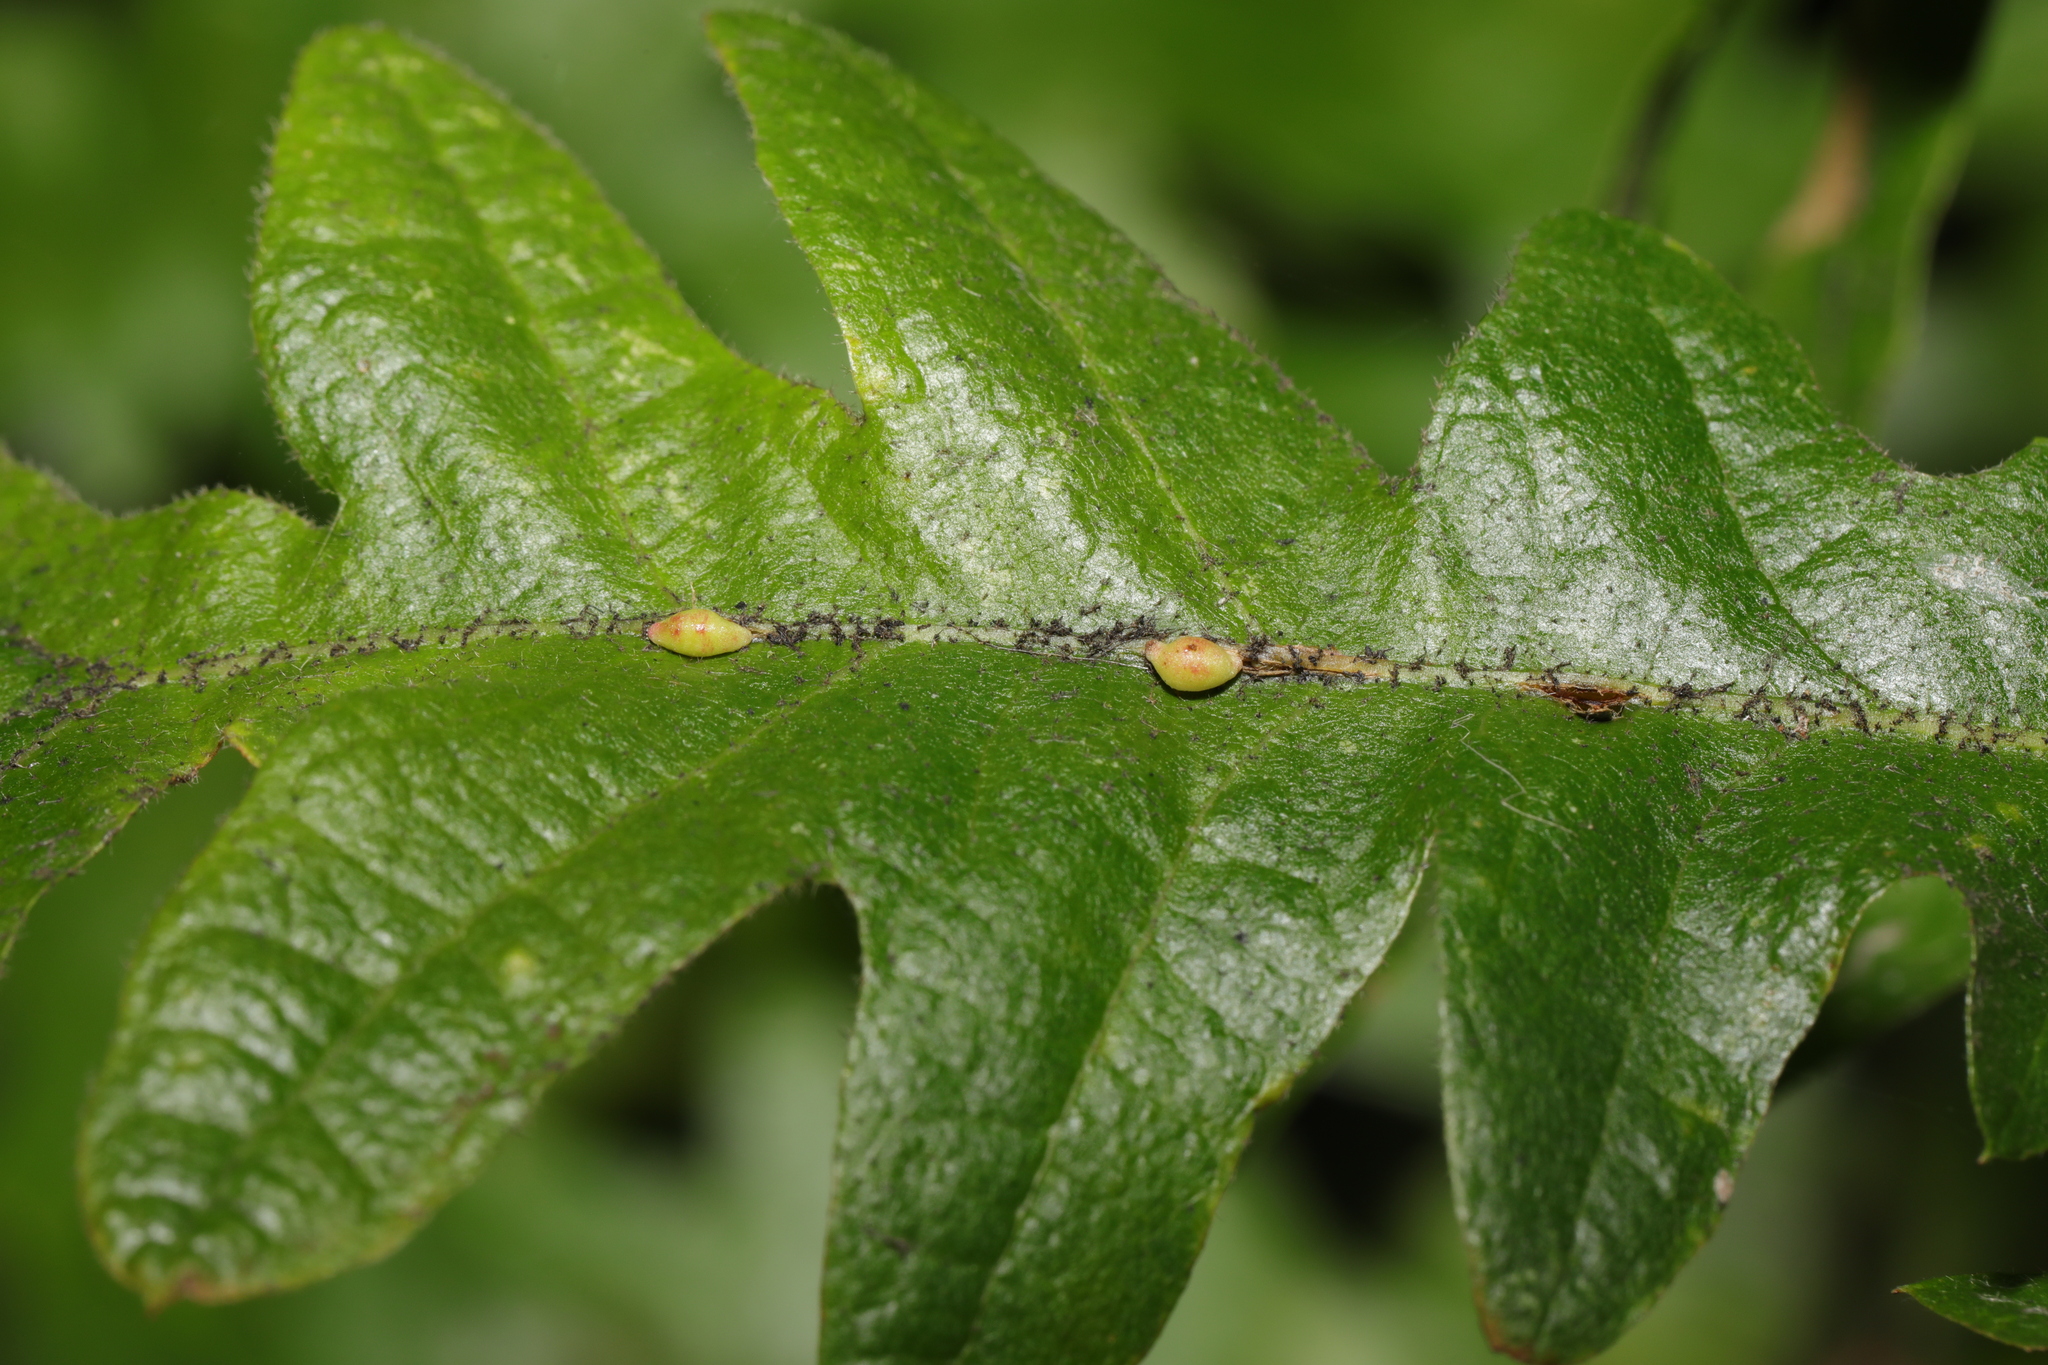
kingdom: Animalia
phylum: Arthropoda
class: Insecta
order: Hymenoptera
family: Cynipidae
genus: Neuroterus
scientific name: Neuroterus saliens
